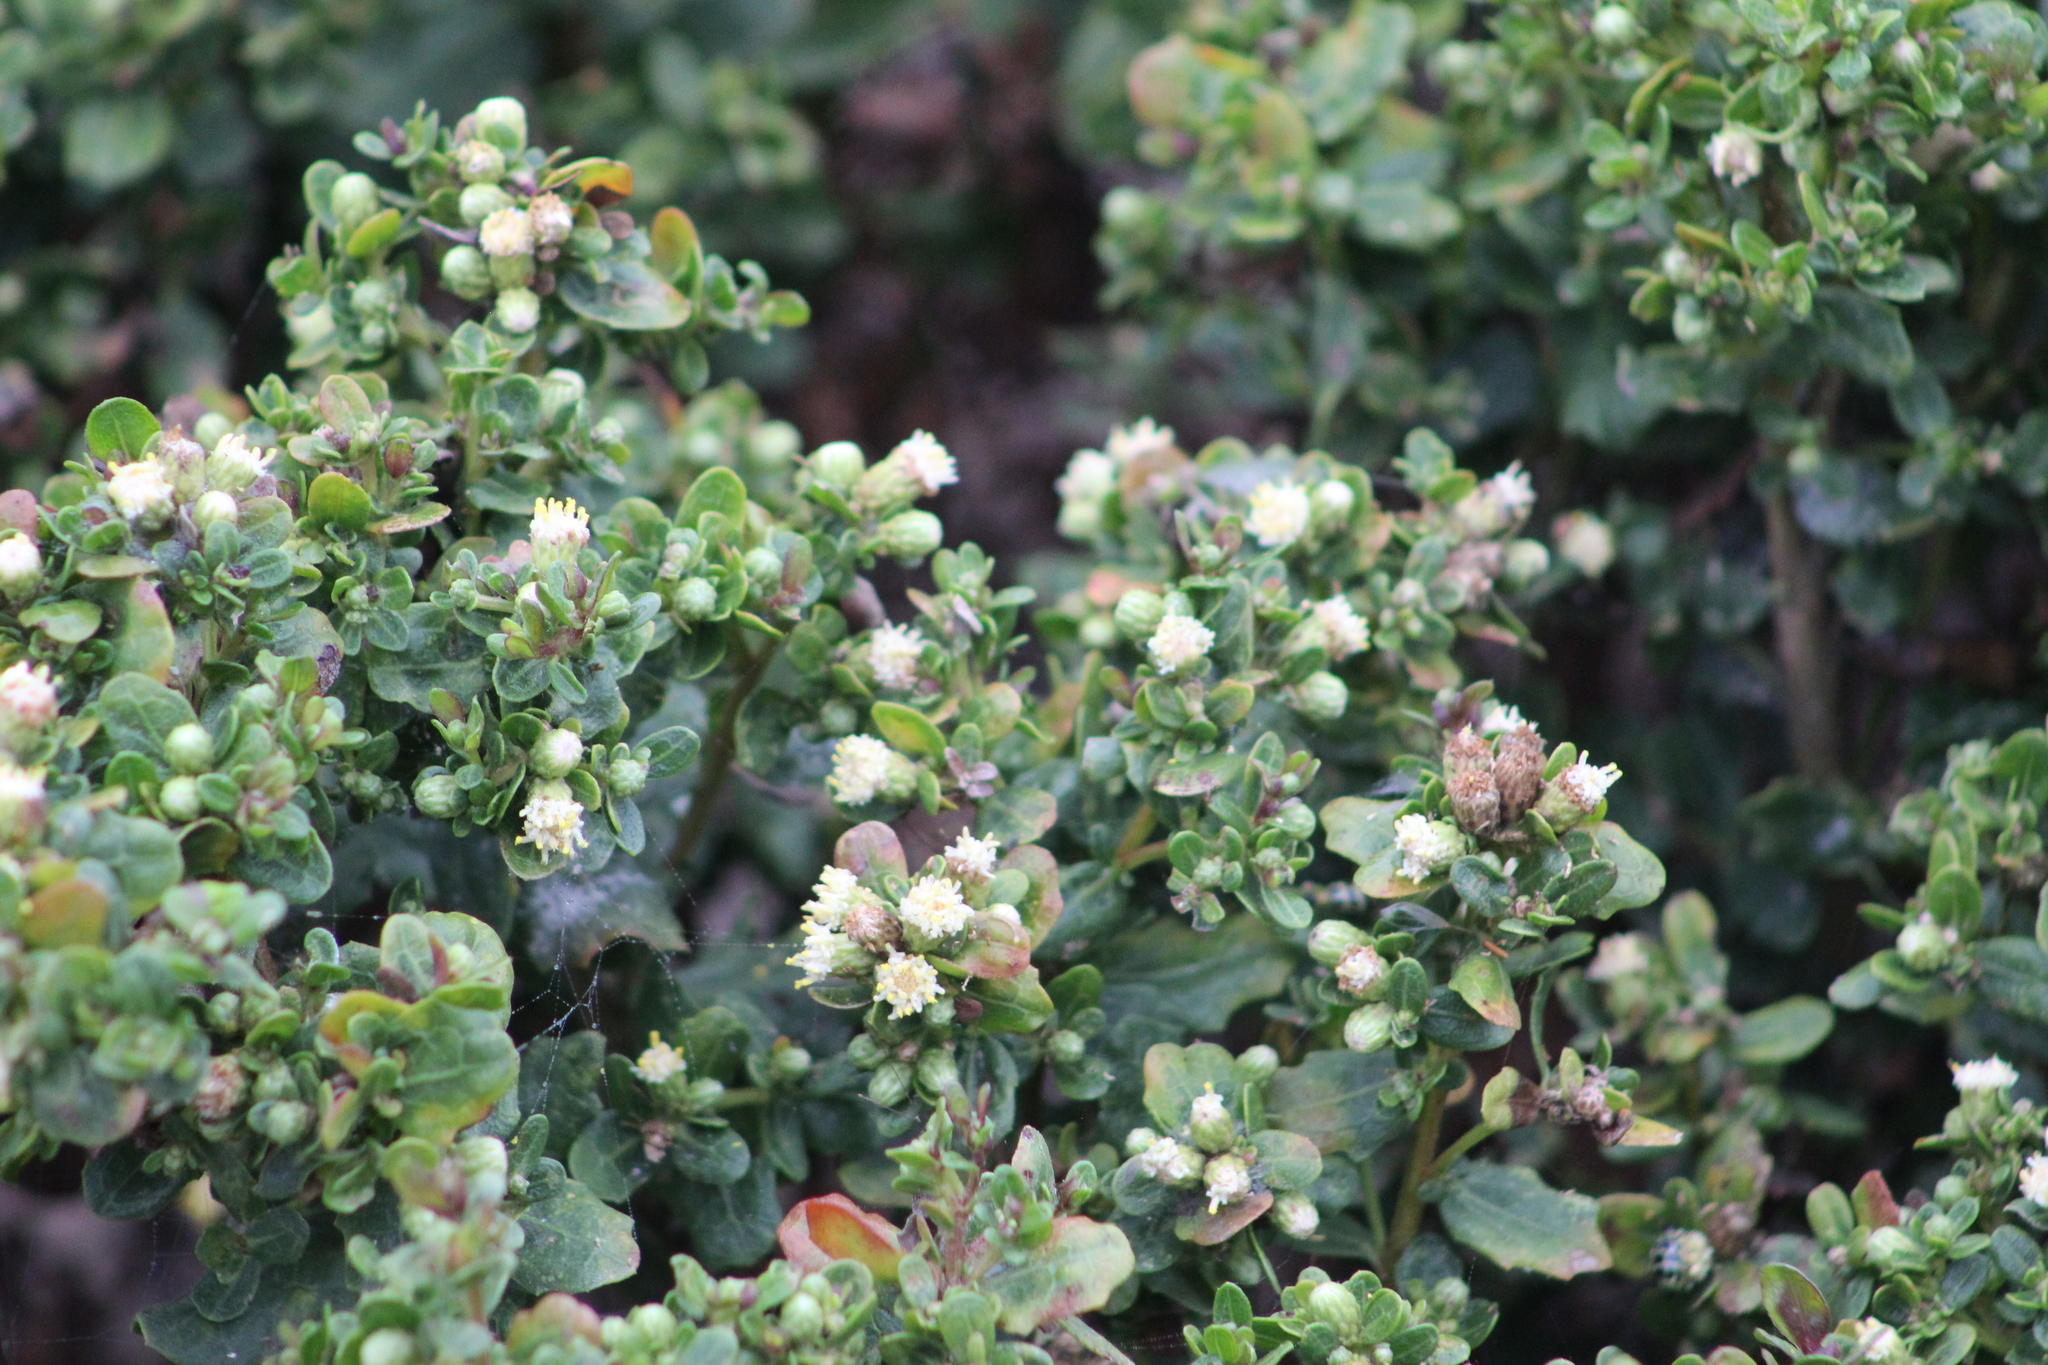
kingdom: Plantae
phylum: Tracheophyta
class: Magnoliopsida
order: Asterales
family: Asteraceae
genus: Baccharis
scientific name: Baccharis pilularis
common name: Coyotebrush
